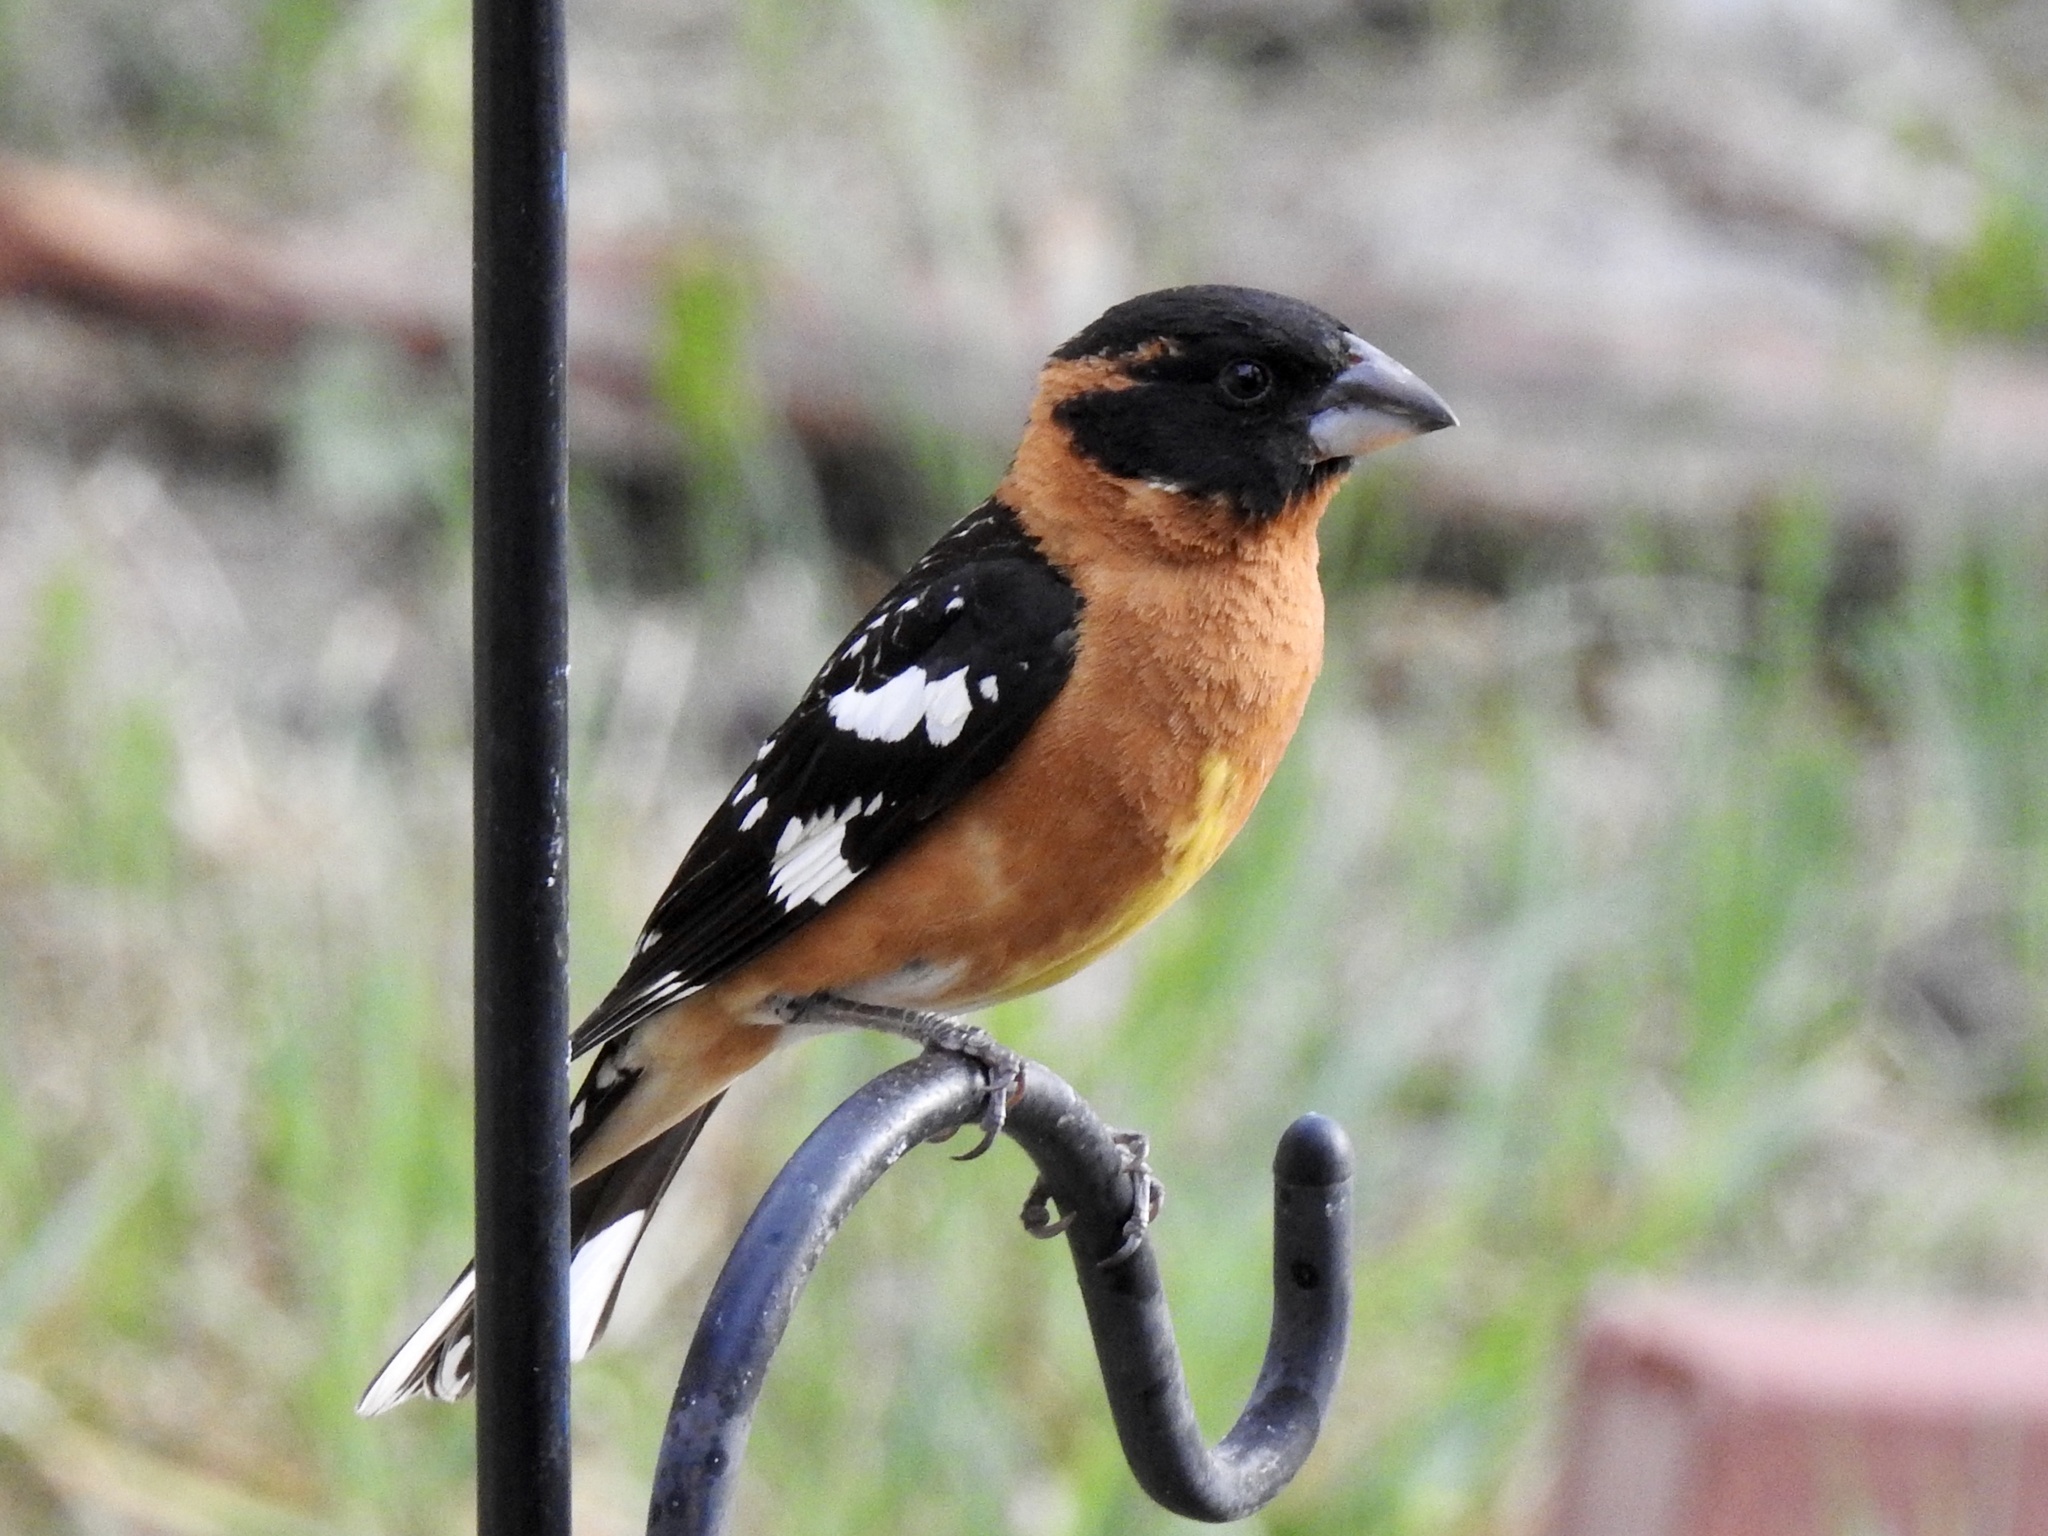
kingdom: Animalia
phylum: Chordata
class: Aves
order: Passeriformes
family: Cardinalidae
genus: Pheucticus
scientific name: Pheucticus melanocephalus
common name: Black-headed grosbeak
